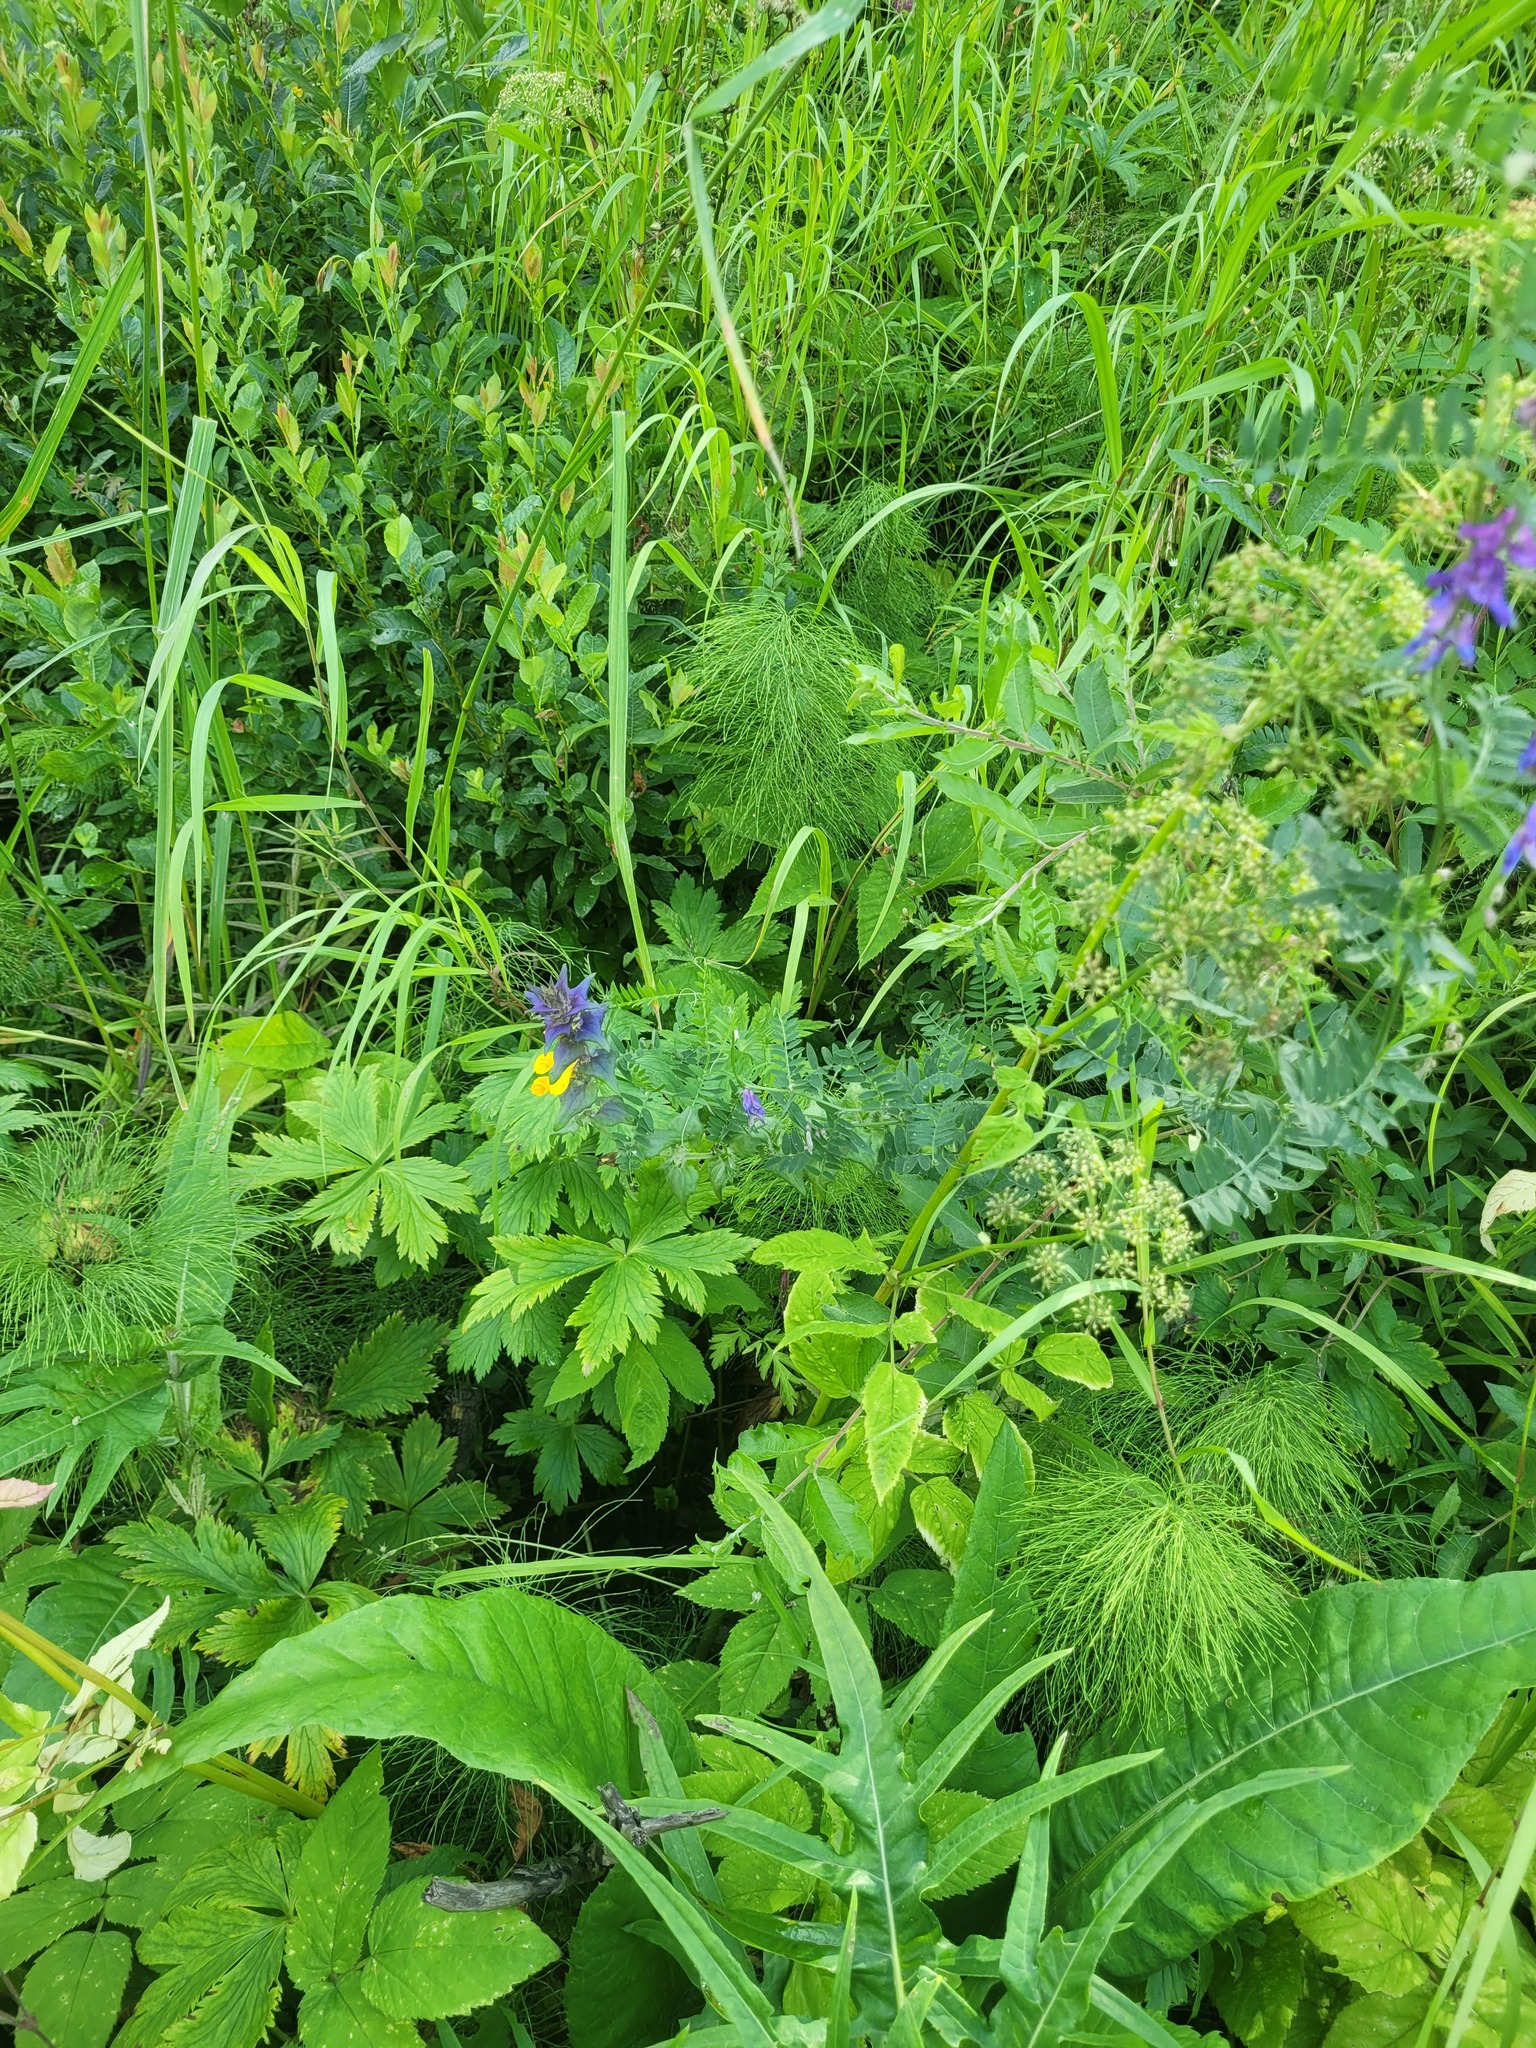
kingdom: Plantae
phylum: Tracheophyta
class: Magnoliopsida
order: Lamiales
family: Orobanchaceae
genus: Melampyrum
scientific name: Melampyrum nemorosum
